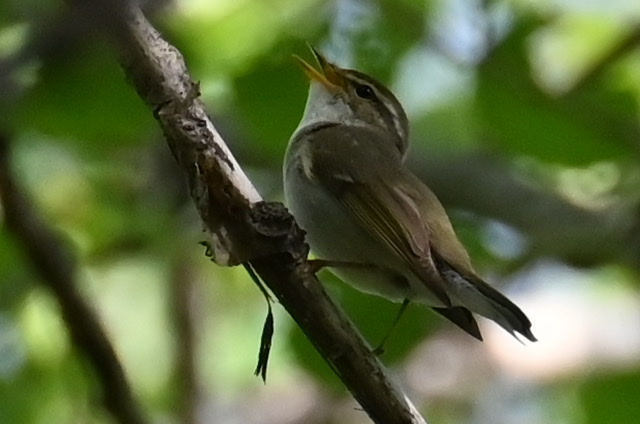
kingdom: Animalia
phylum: Chordata
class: Aves
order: Passeriformes
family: Phylloscopidae
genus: Phylloscopus
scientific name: Phylloscopus borealis
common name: Arctic warbler
